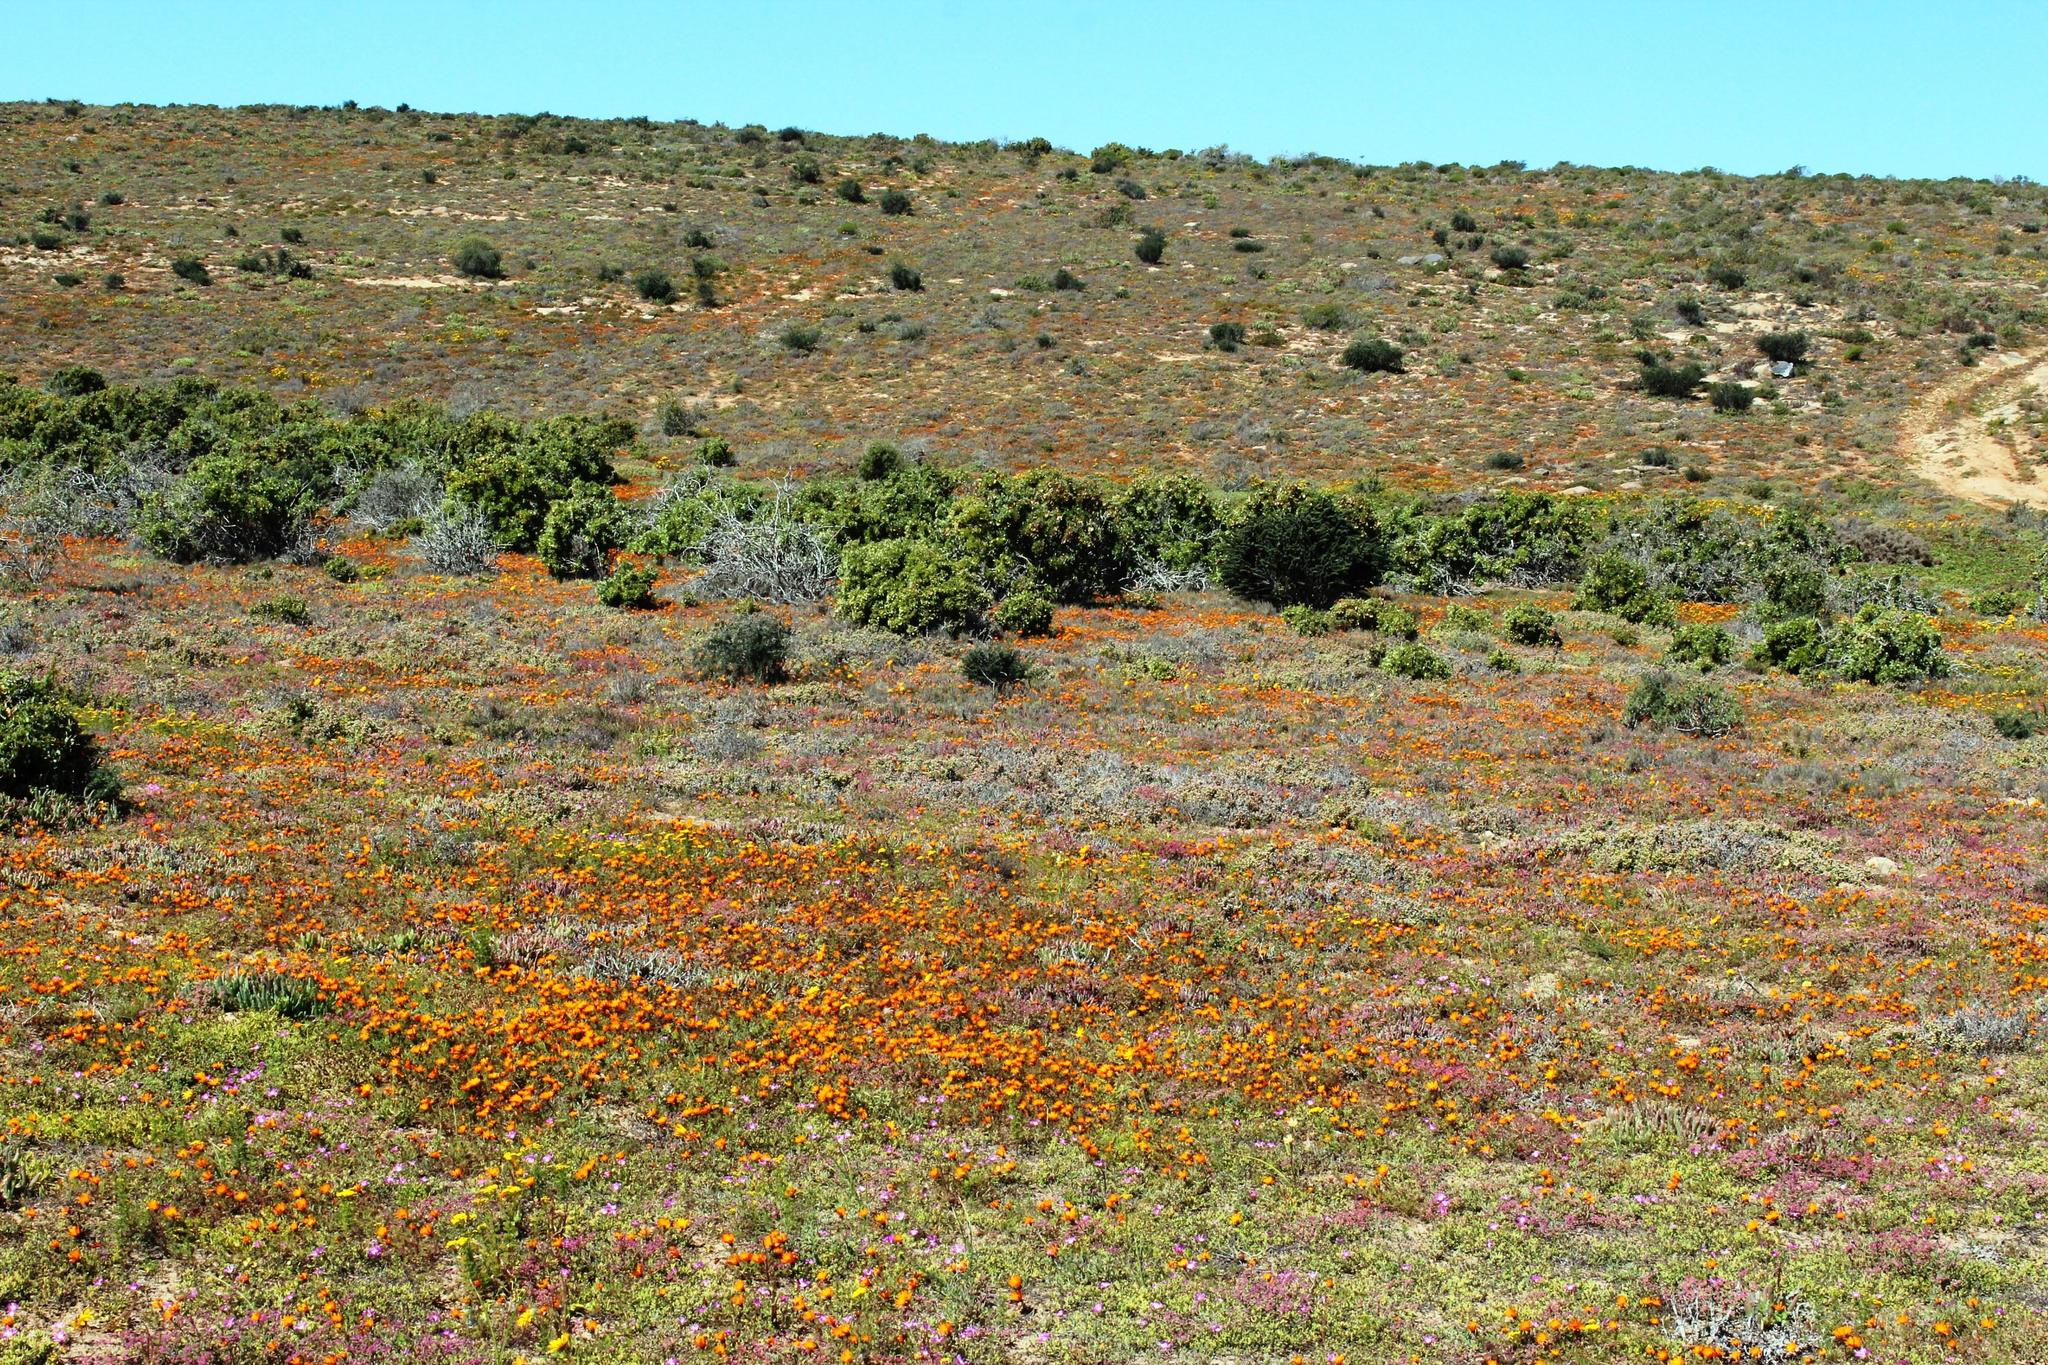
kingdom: Plantae
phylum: Tracheophyta
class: Magnoliopsida
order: Zygophyllales
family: Zygophyllaceae
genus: Roepera
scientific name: Roepera morgsana
